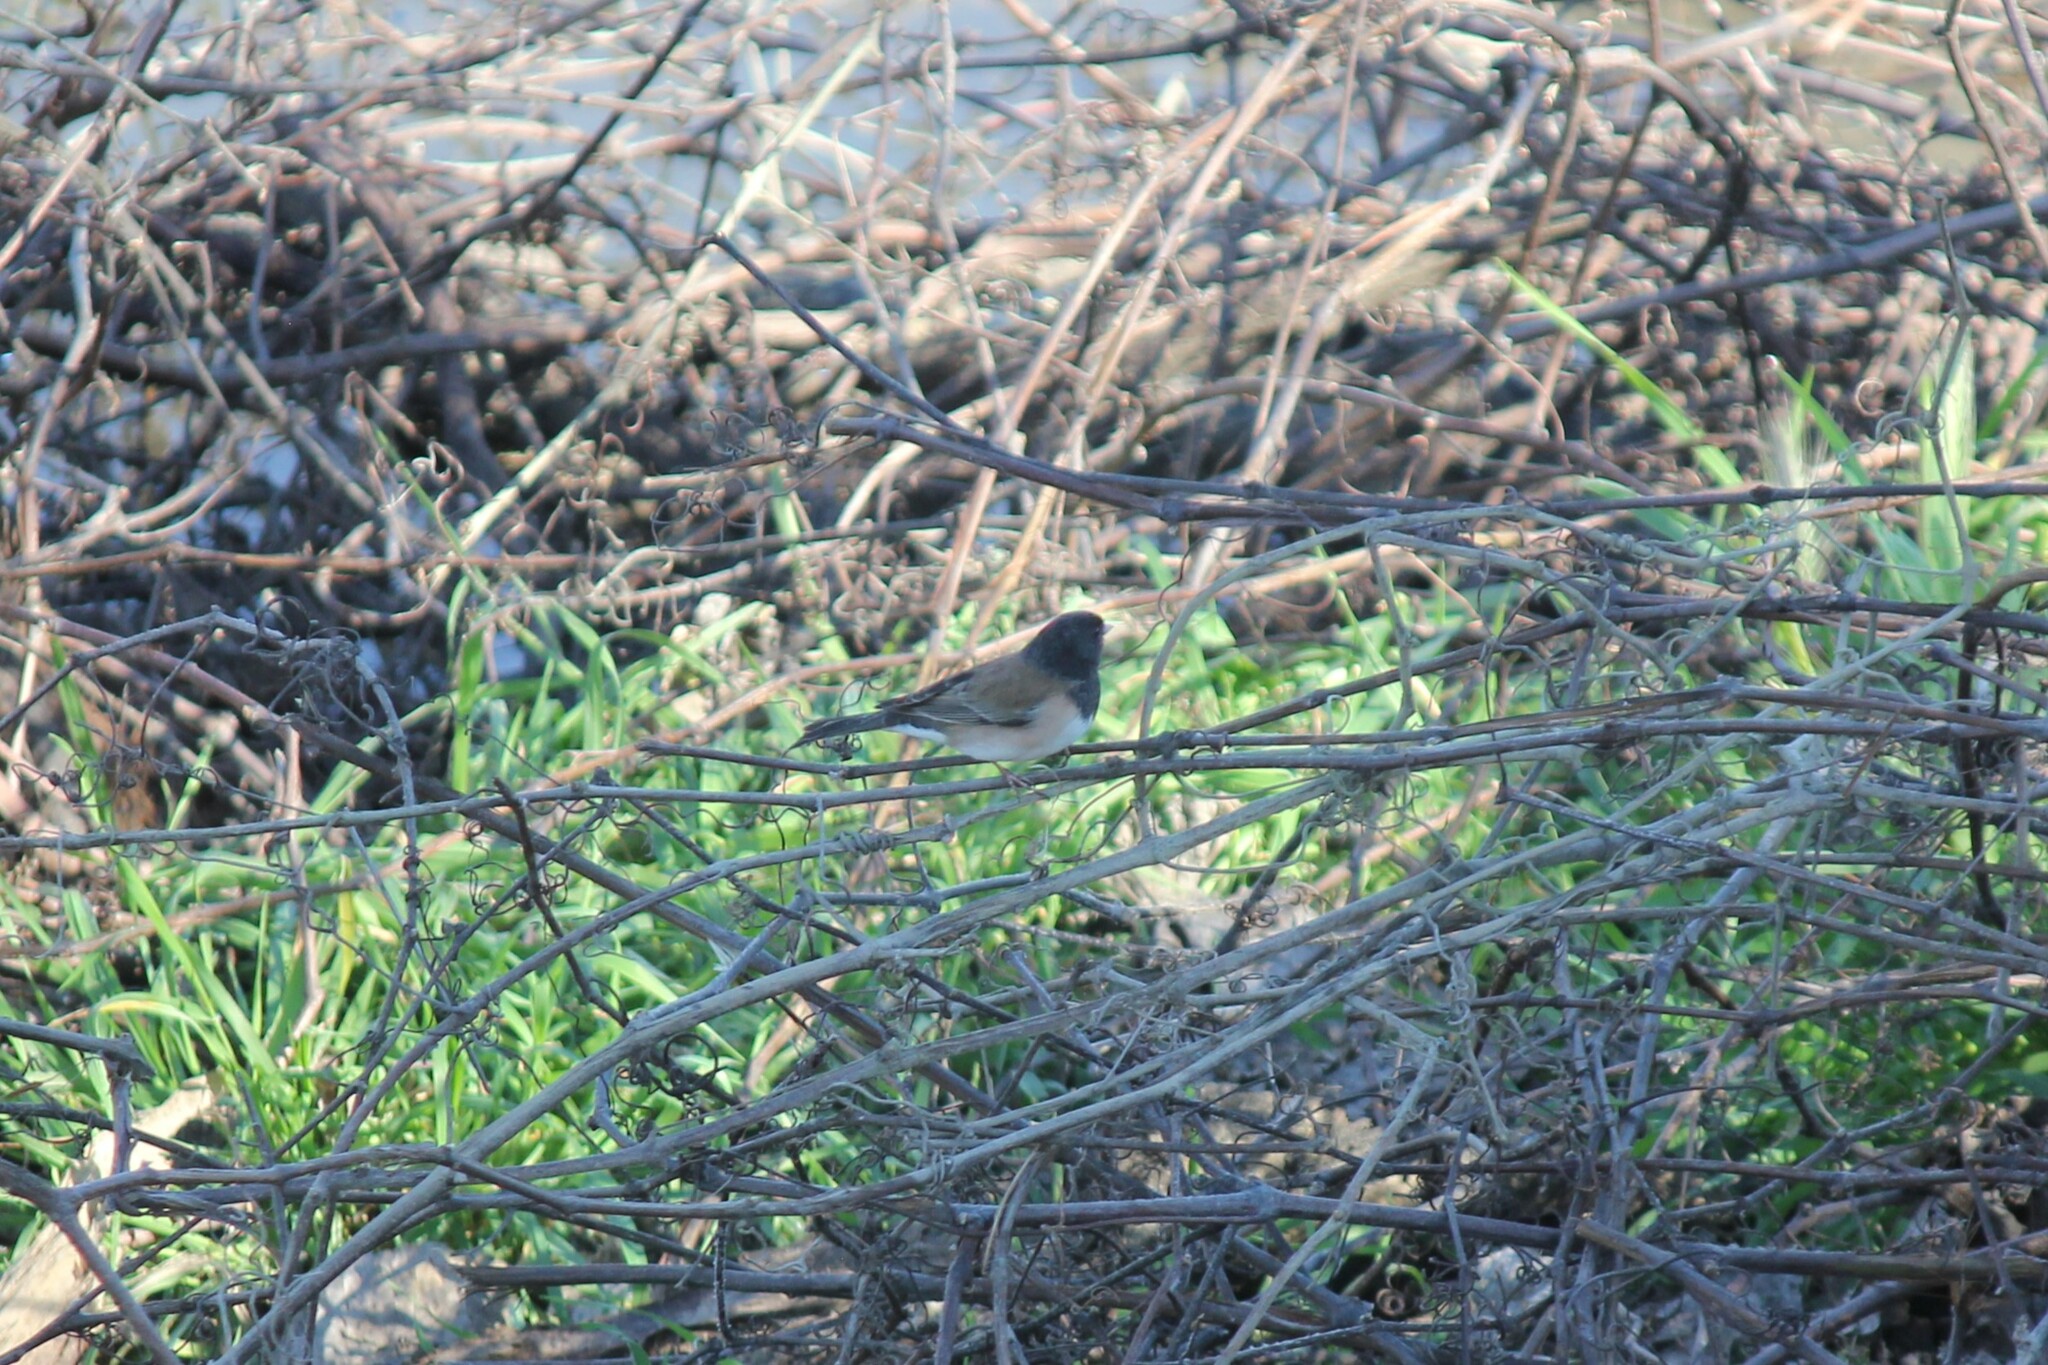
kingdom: Animalia
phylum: Chordata
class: Aves
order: Passeriformes
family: Passerellidae
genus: Junco
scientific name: Junco hyemalis
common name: Dark-eyed junco
